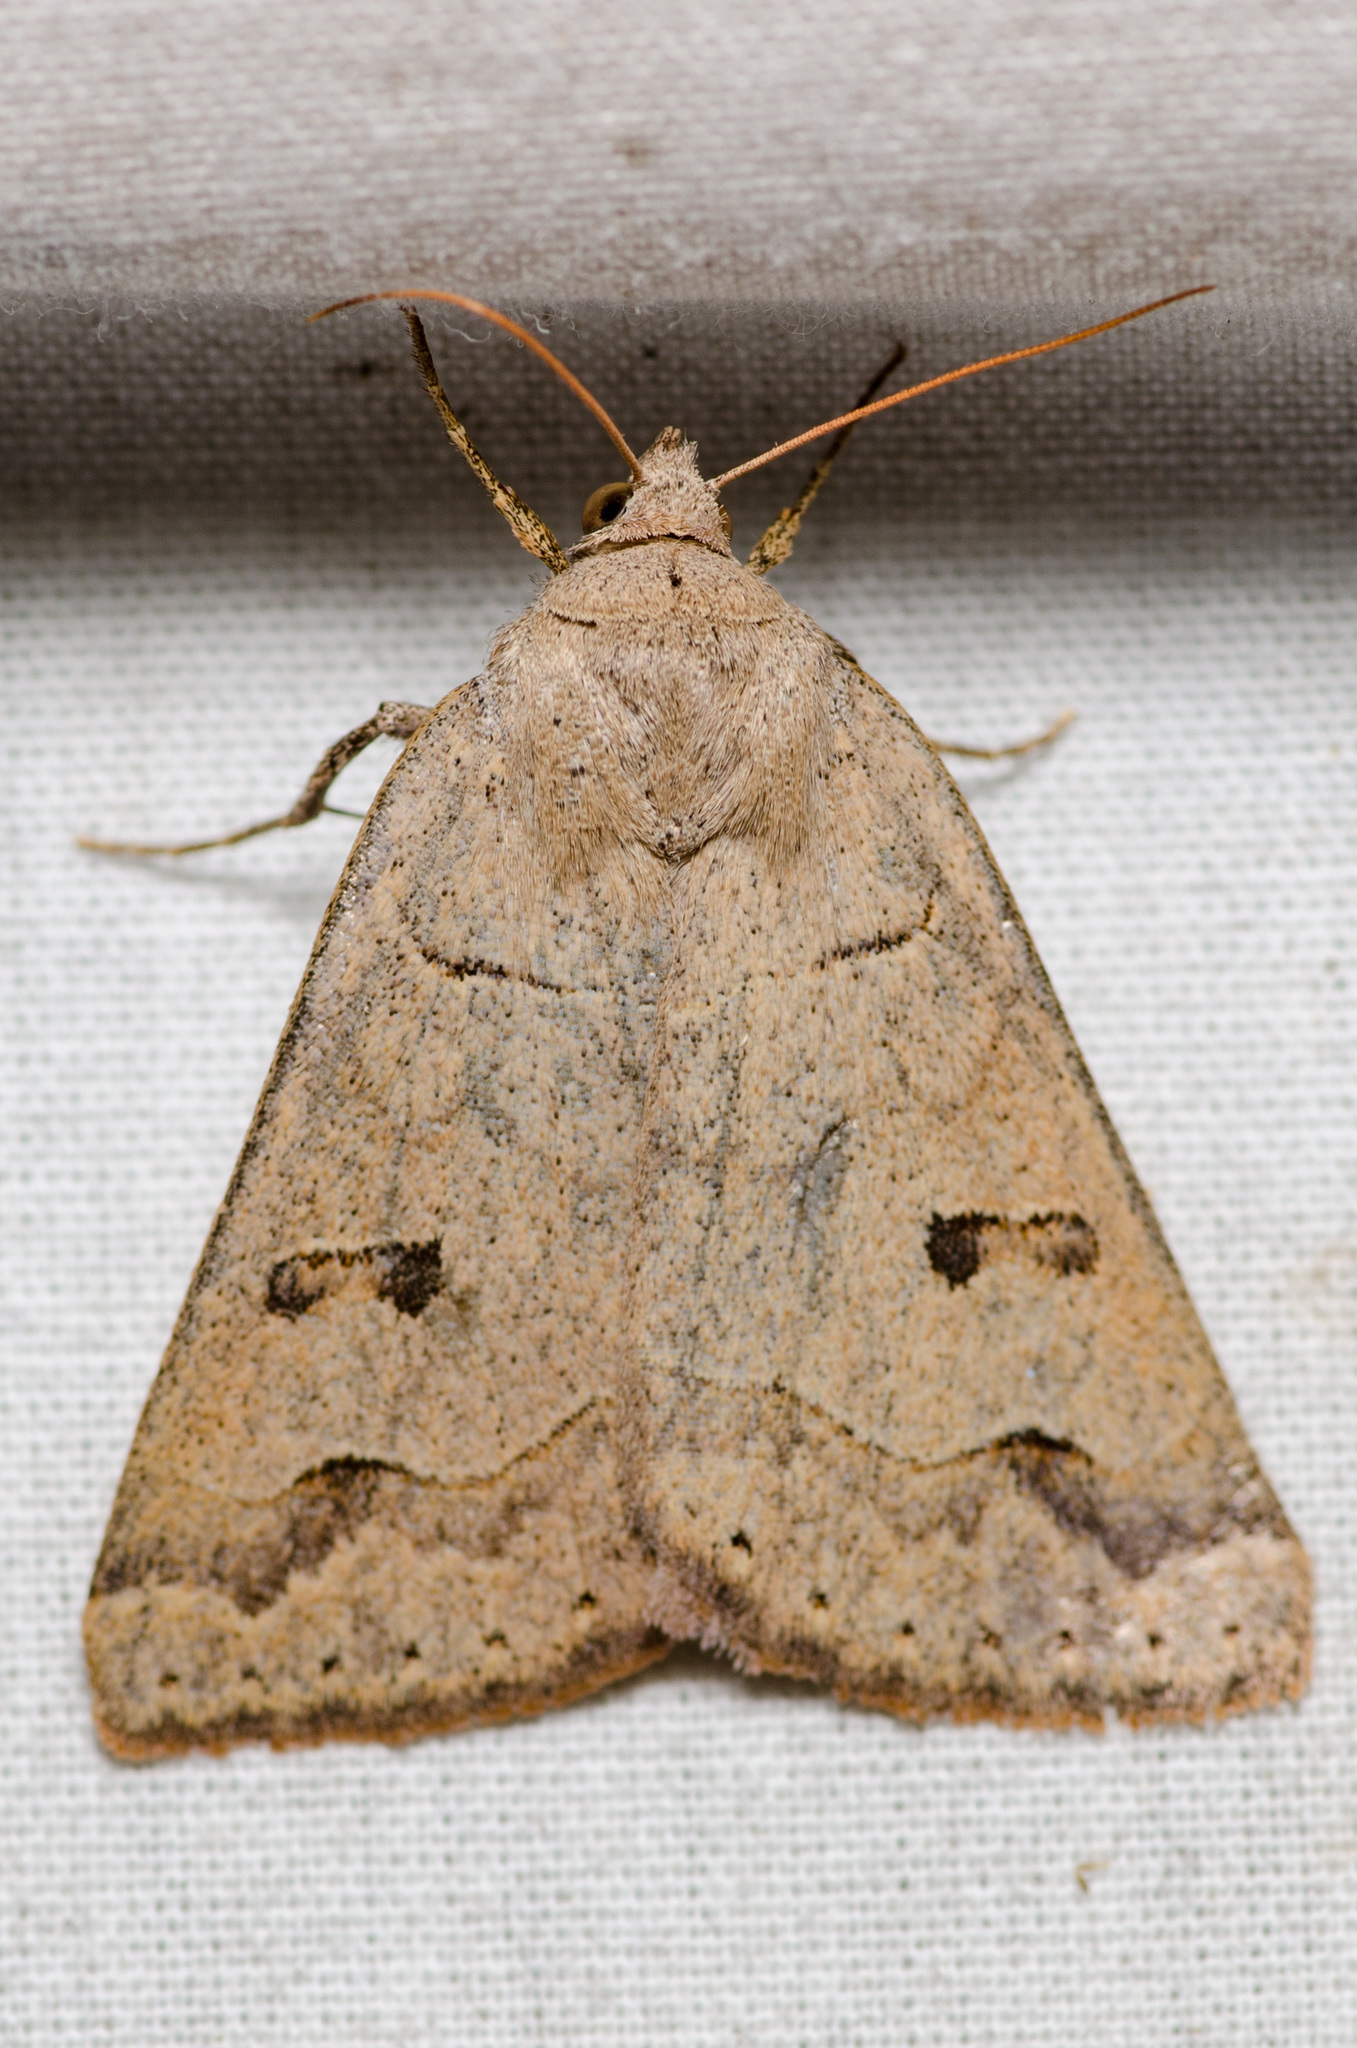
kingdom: Animalia
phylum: Arthropoda
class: Insecta
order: Lepidoptera
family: Erebidae
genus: Phoberia
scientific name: Phoberia atomaris
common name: Common oak moth
